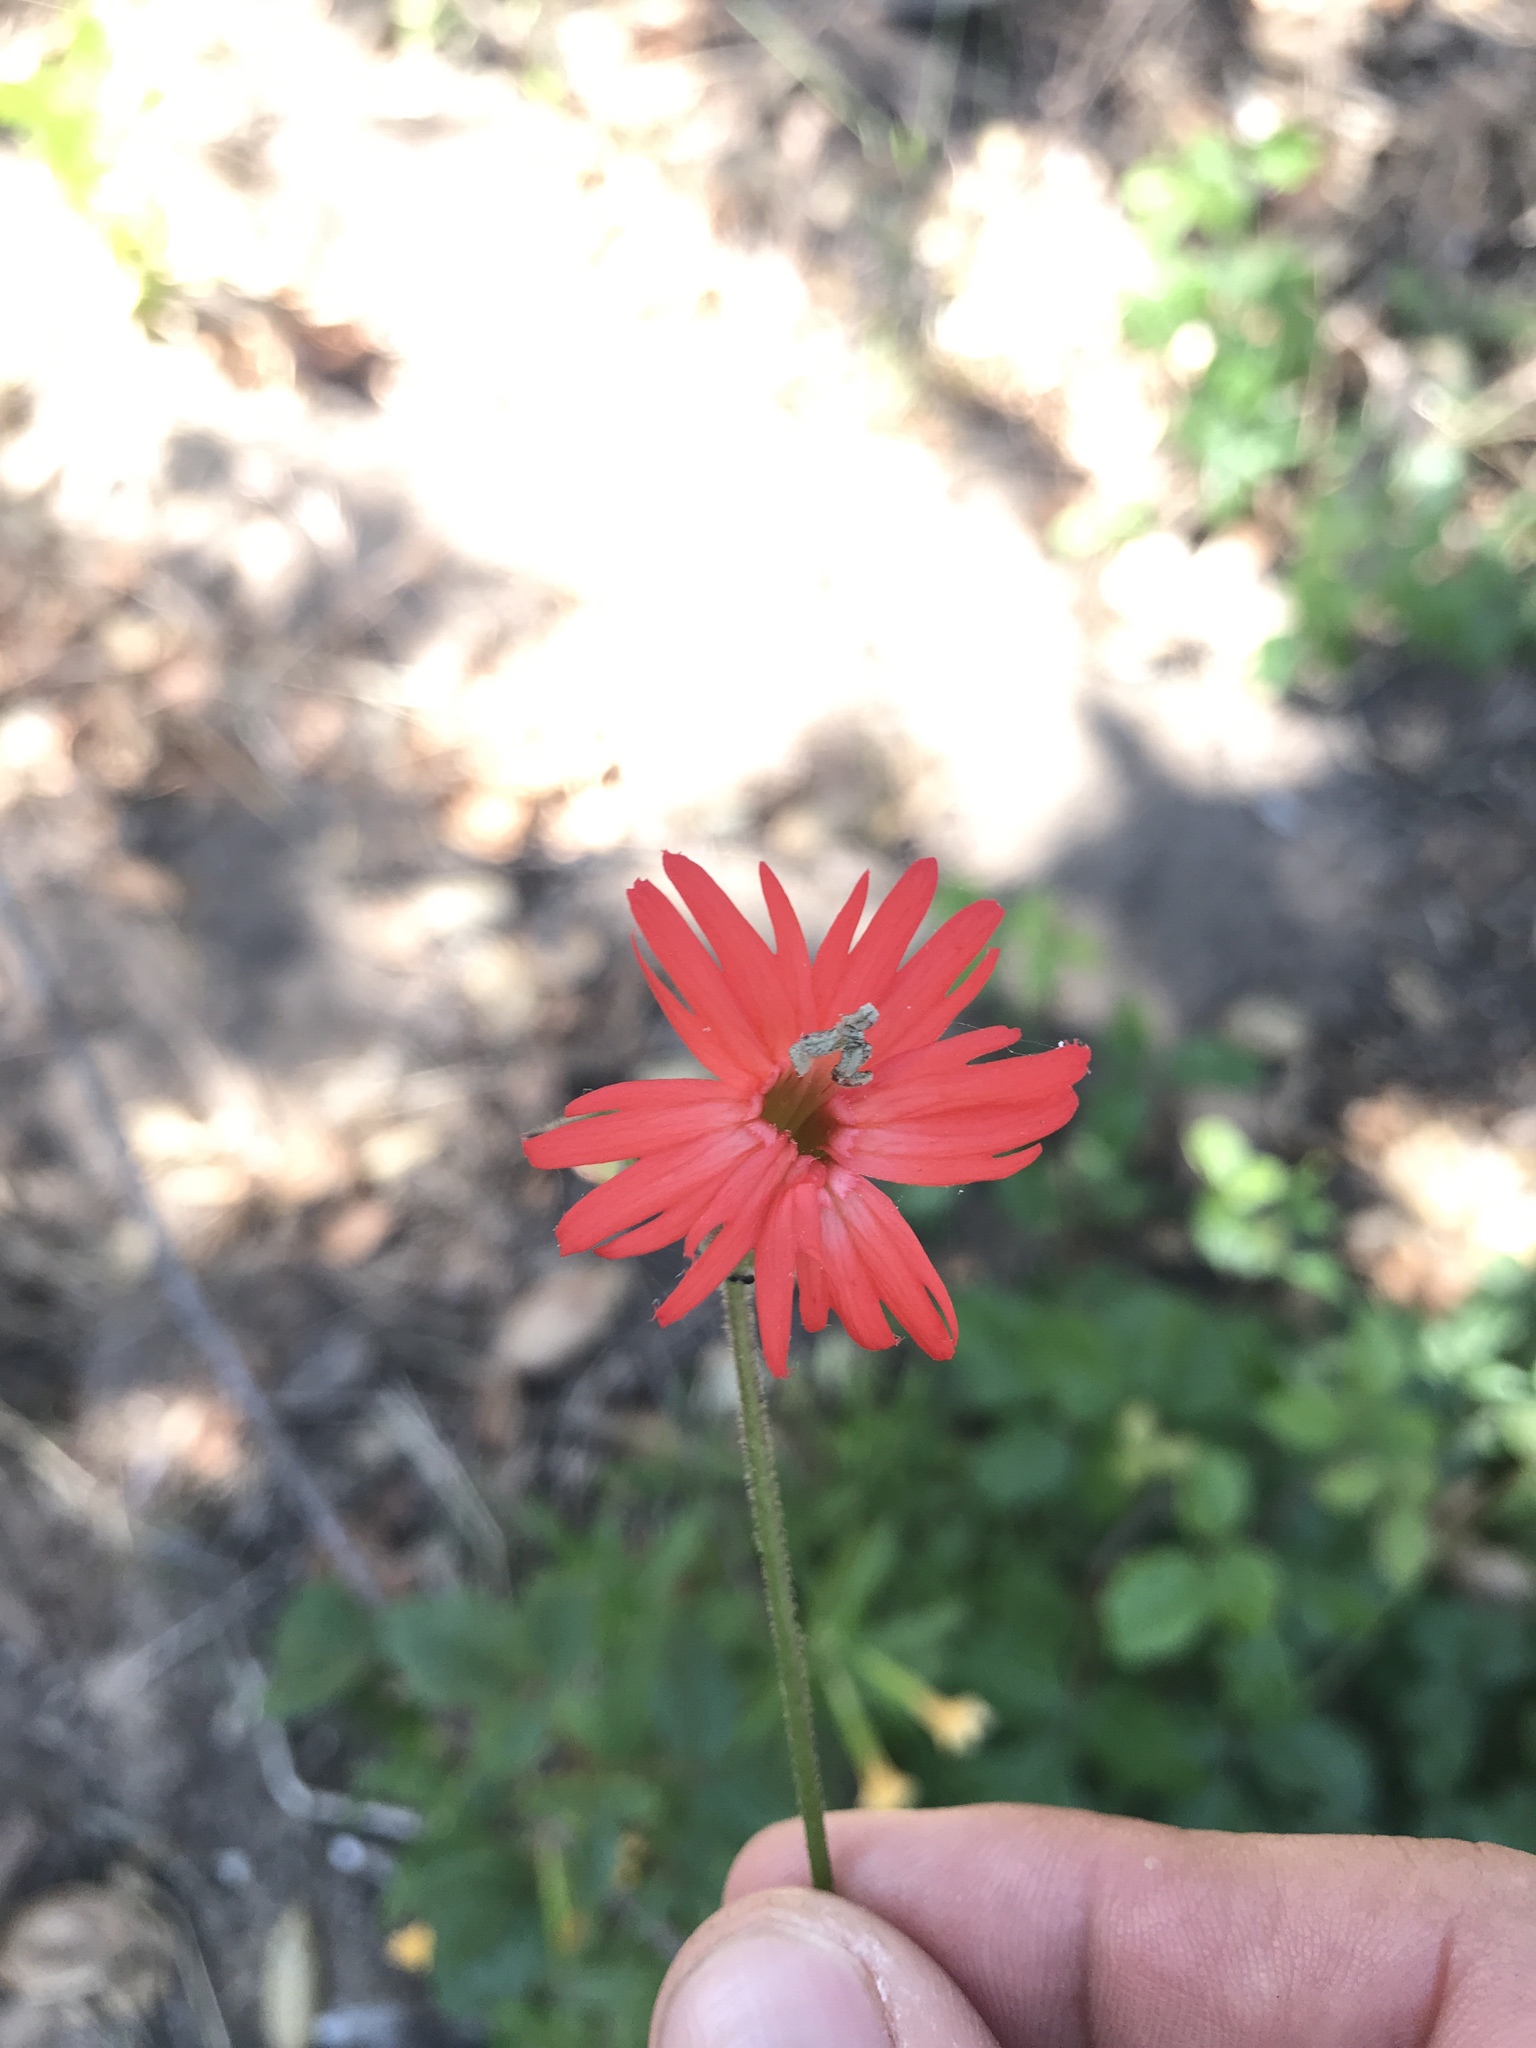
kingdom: Plantae
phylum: Tracheophyta
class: Magnoliopsida
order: Caryophyllales
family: Caryophyllaceae
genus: Silene
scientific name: Silene laciniata
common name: Indian-pink
